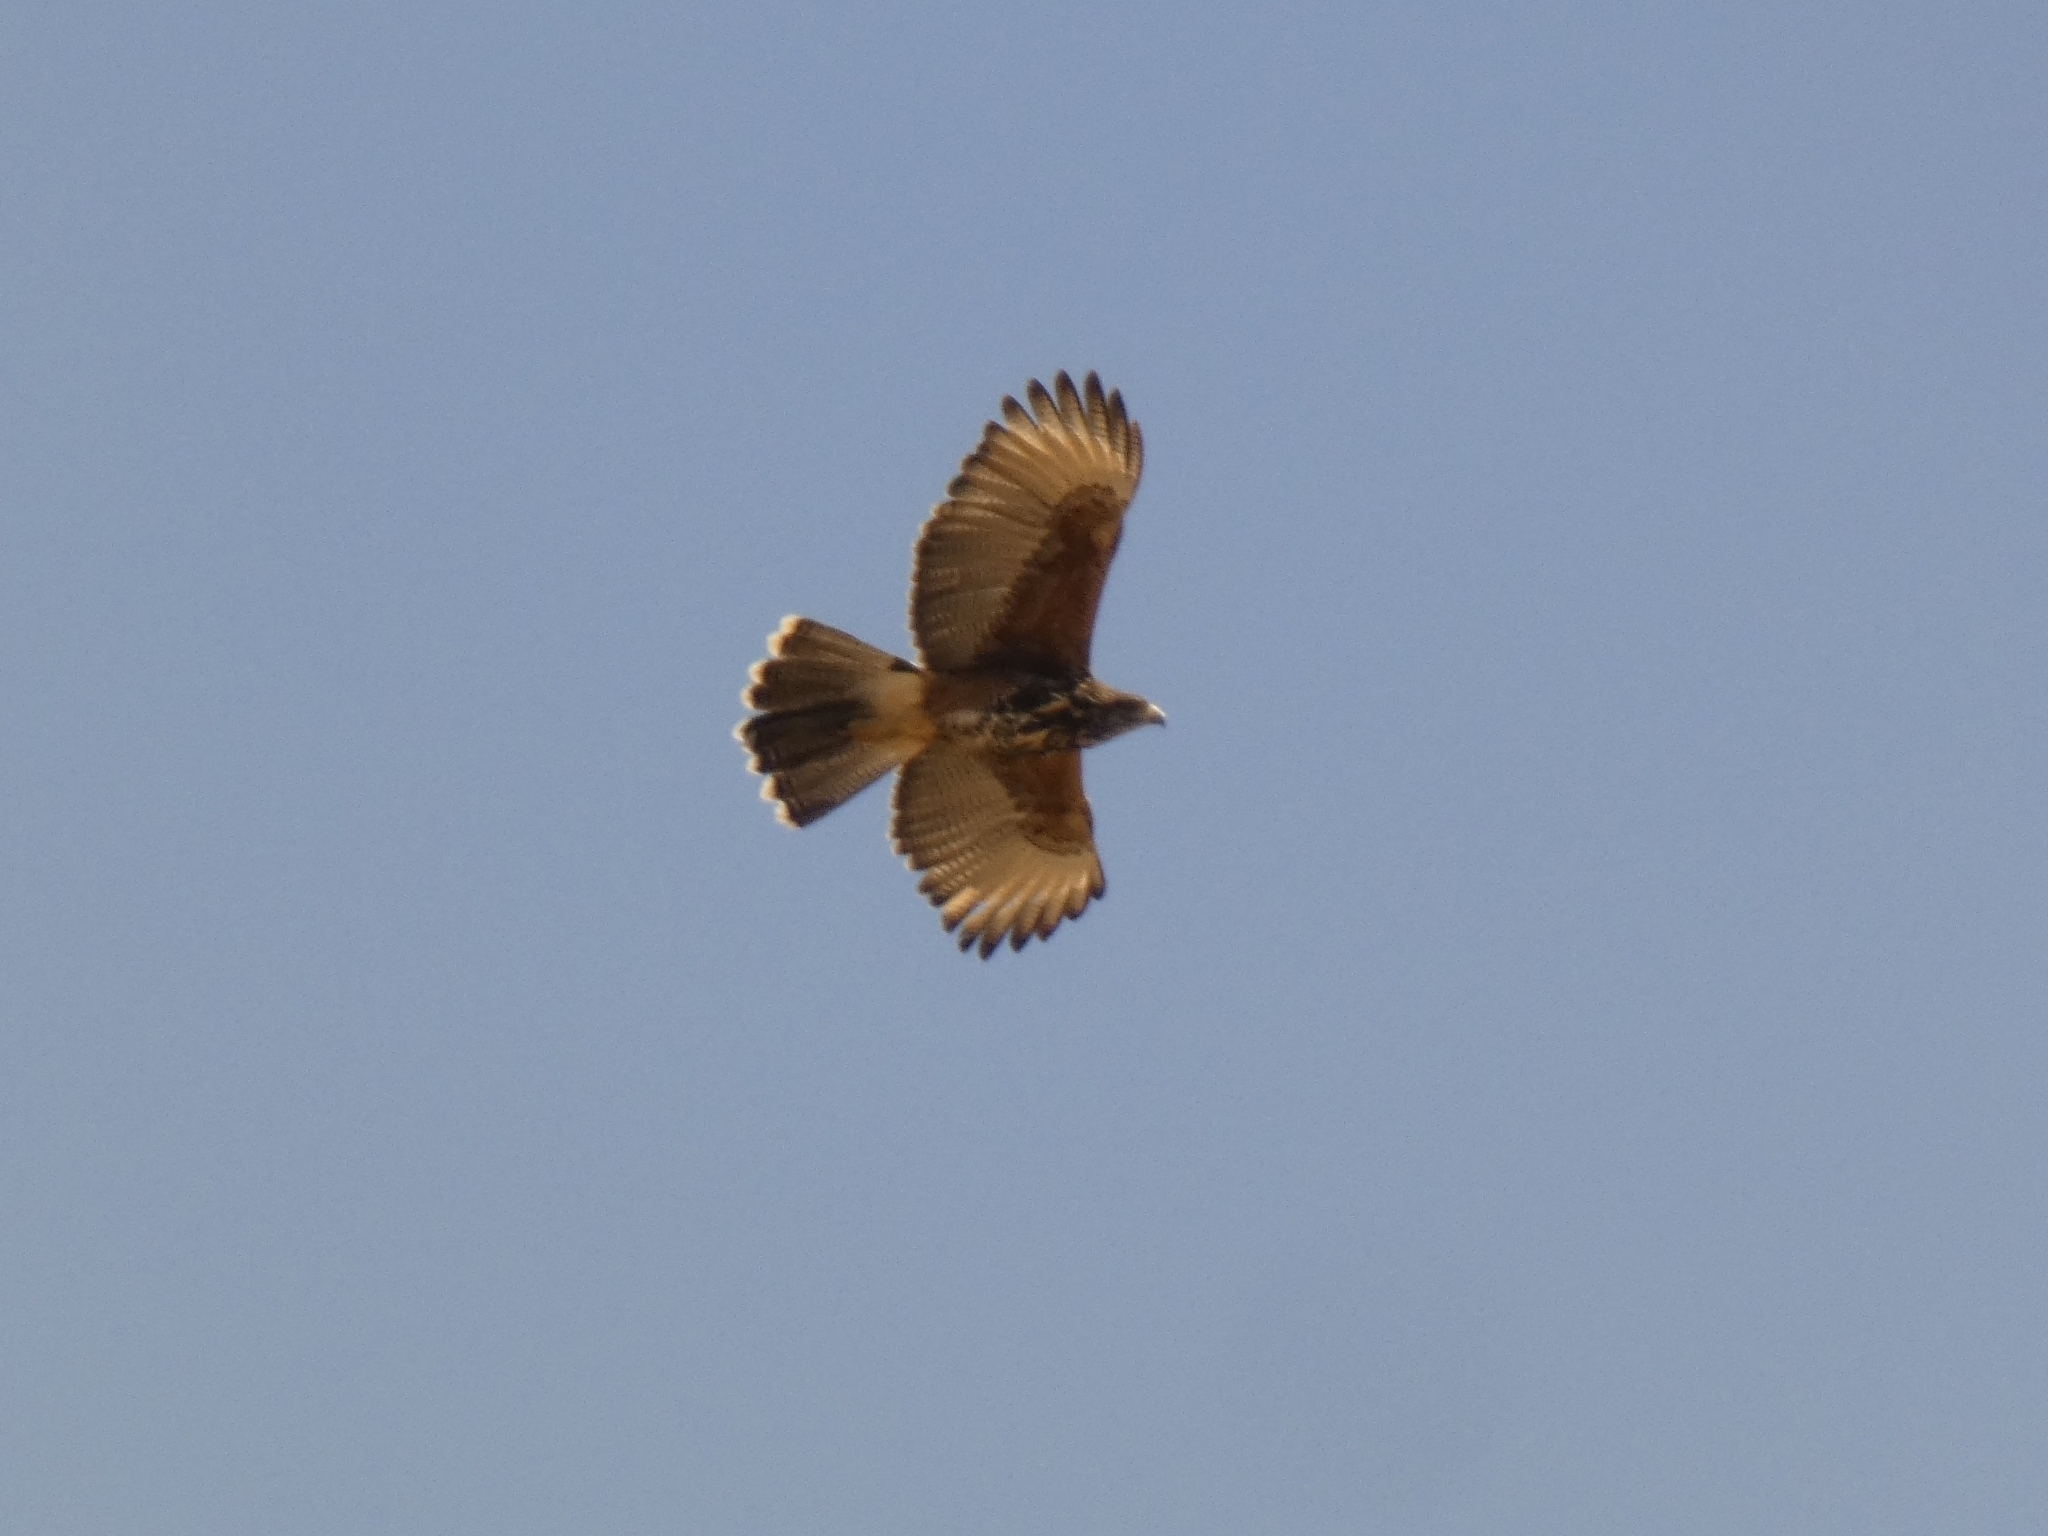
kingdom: Animalia
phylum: Chordata
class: Aves
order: Accipitriformes
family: Accipitridae
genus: Parabuteo
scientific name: Parabuteo unicinctus
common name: Harris's hawk
